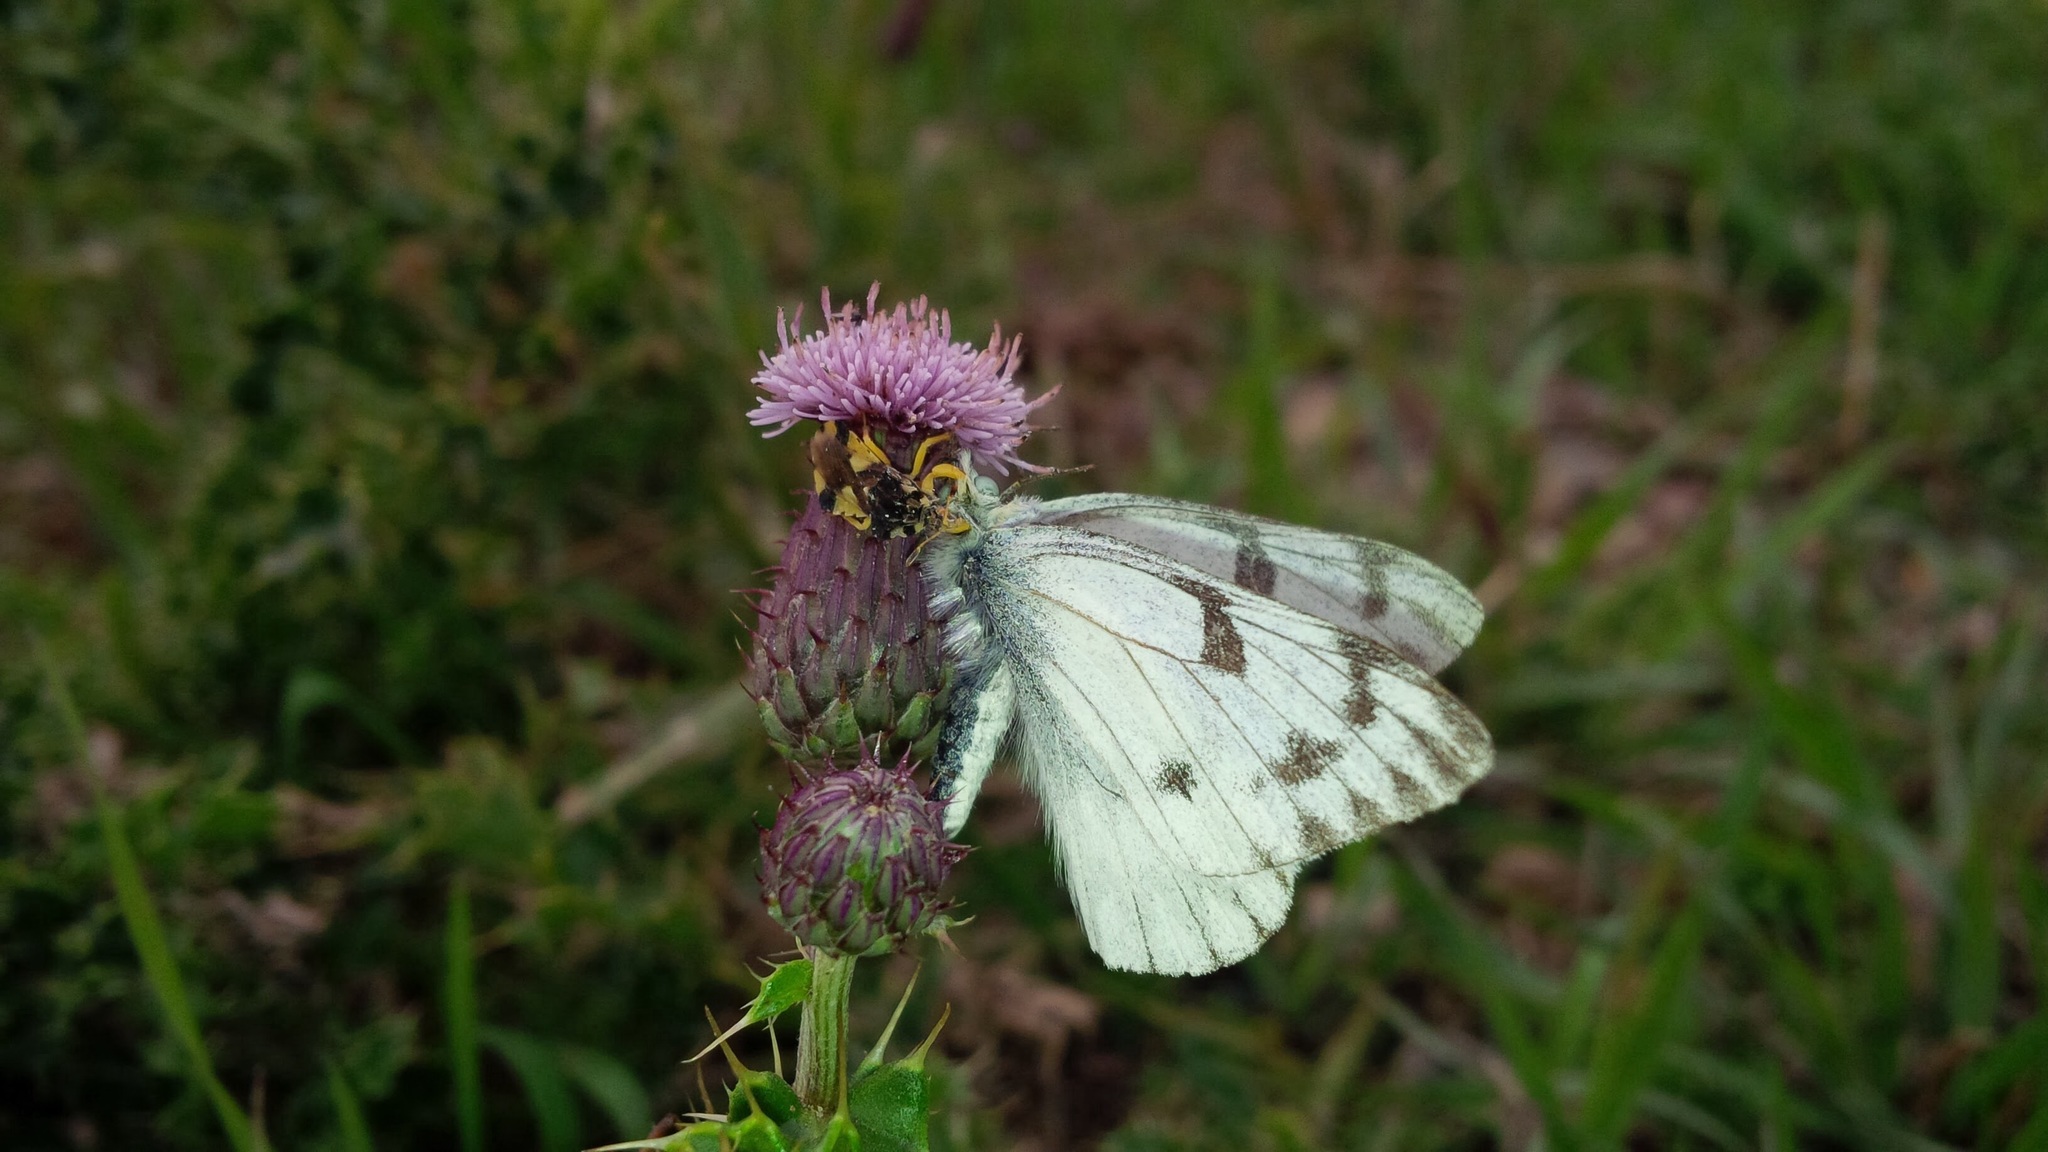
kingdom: Animalia
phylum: Arthropoda
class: Insecta
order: Hemiptera
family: Reduviidae
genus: Phymata
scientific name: Phymata americana
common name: Jagged ambush bug
